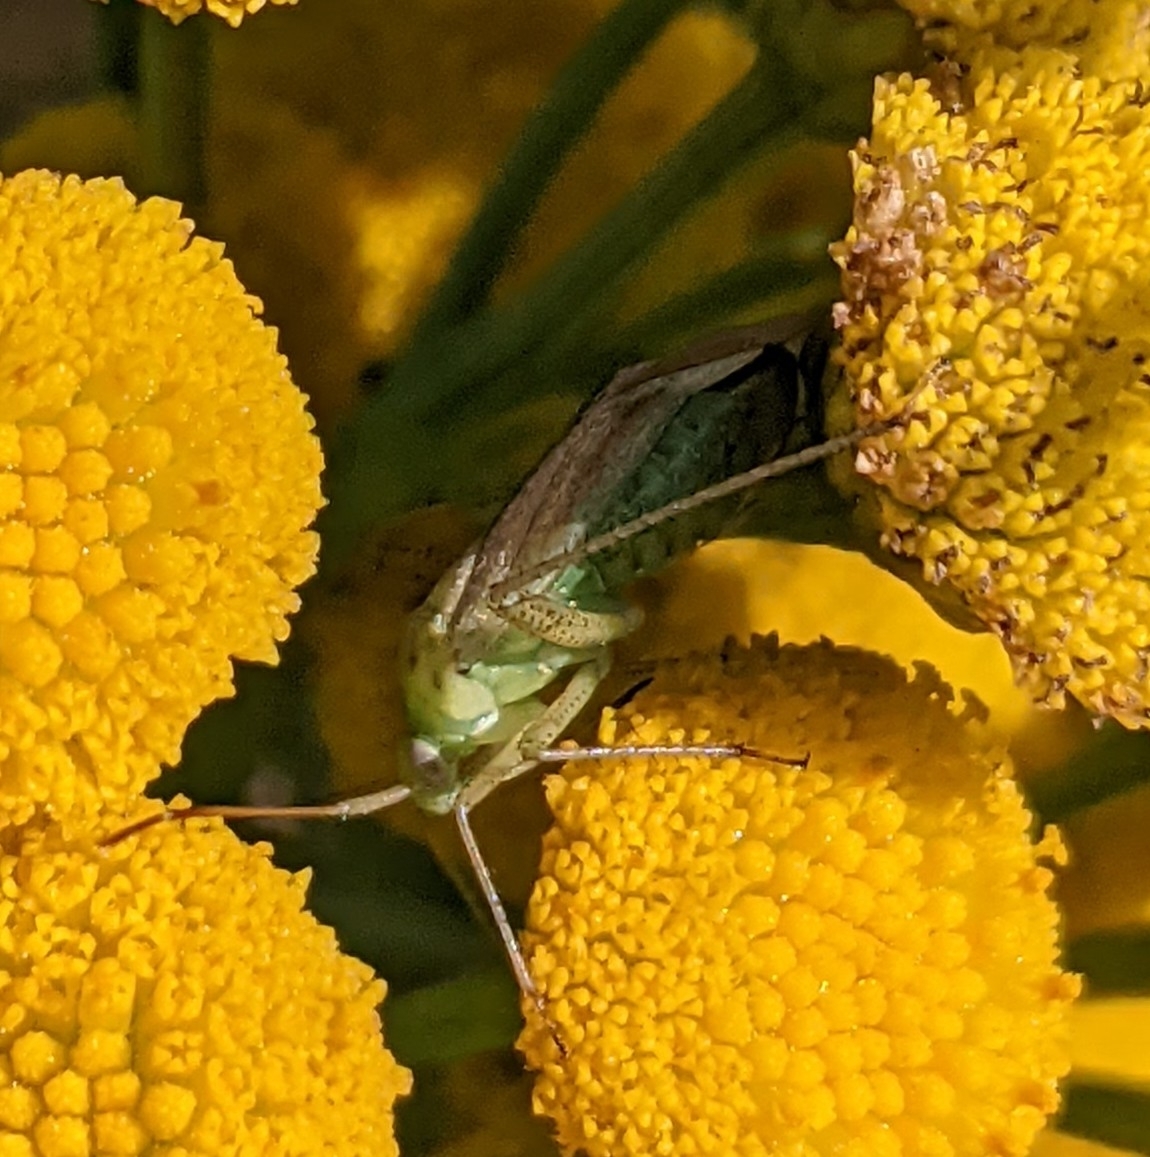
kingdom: Animalia
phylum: Arthropoda
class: Insecta
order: Hemiptera
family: Miridae
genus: Adelphocoris
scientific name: Adelphocoris lineolatus
